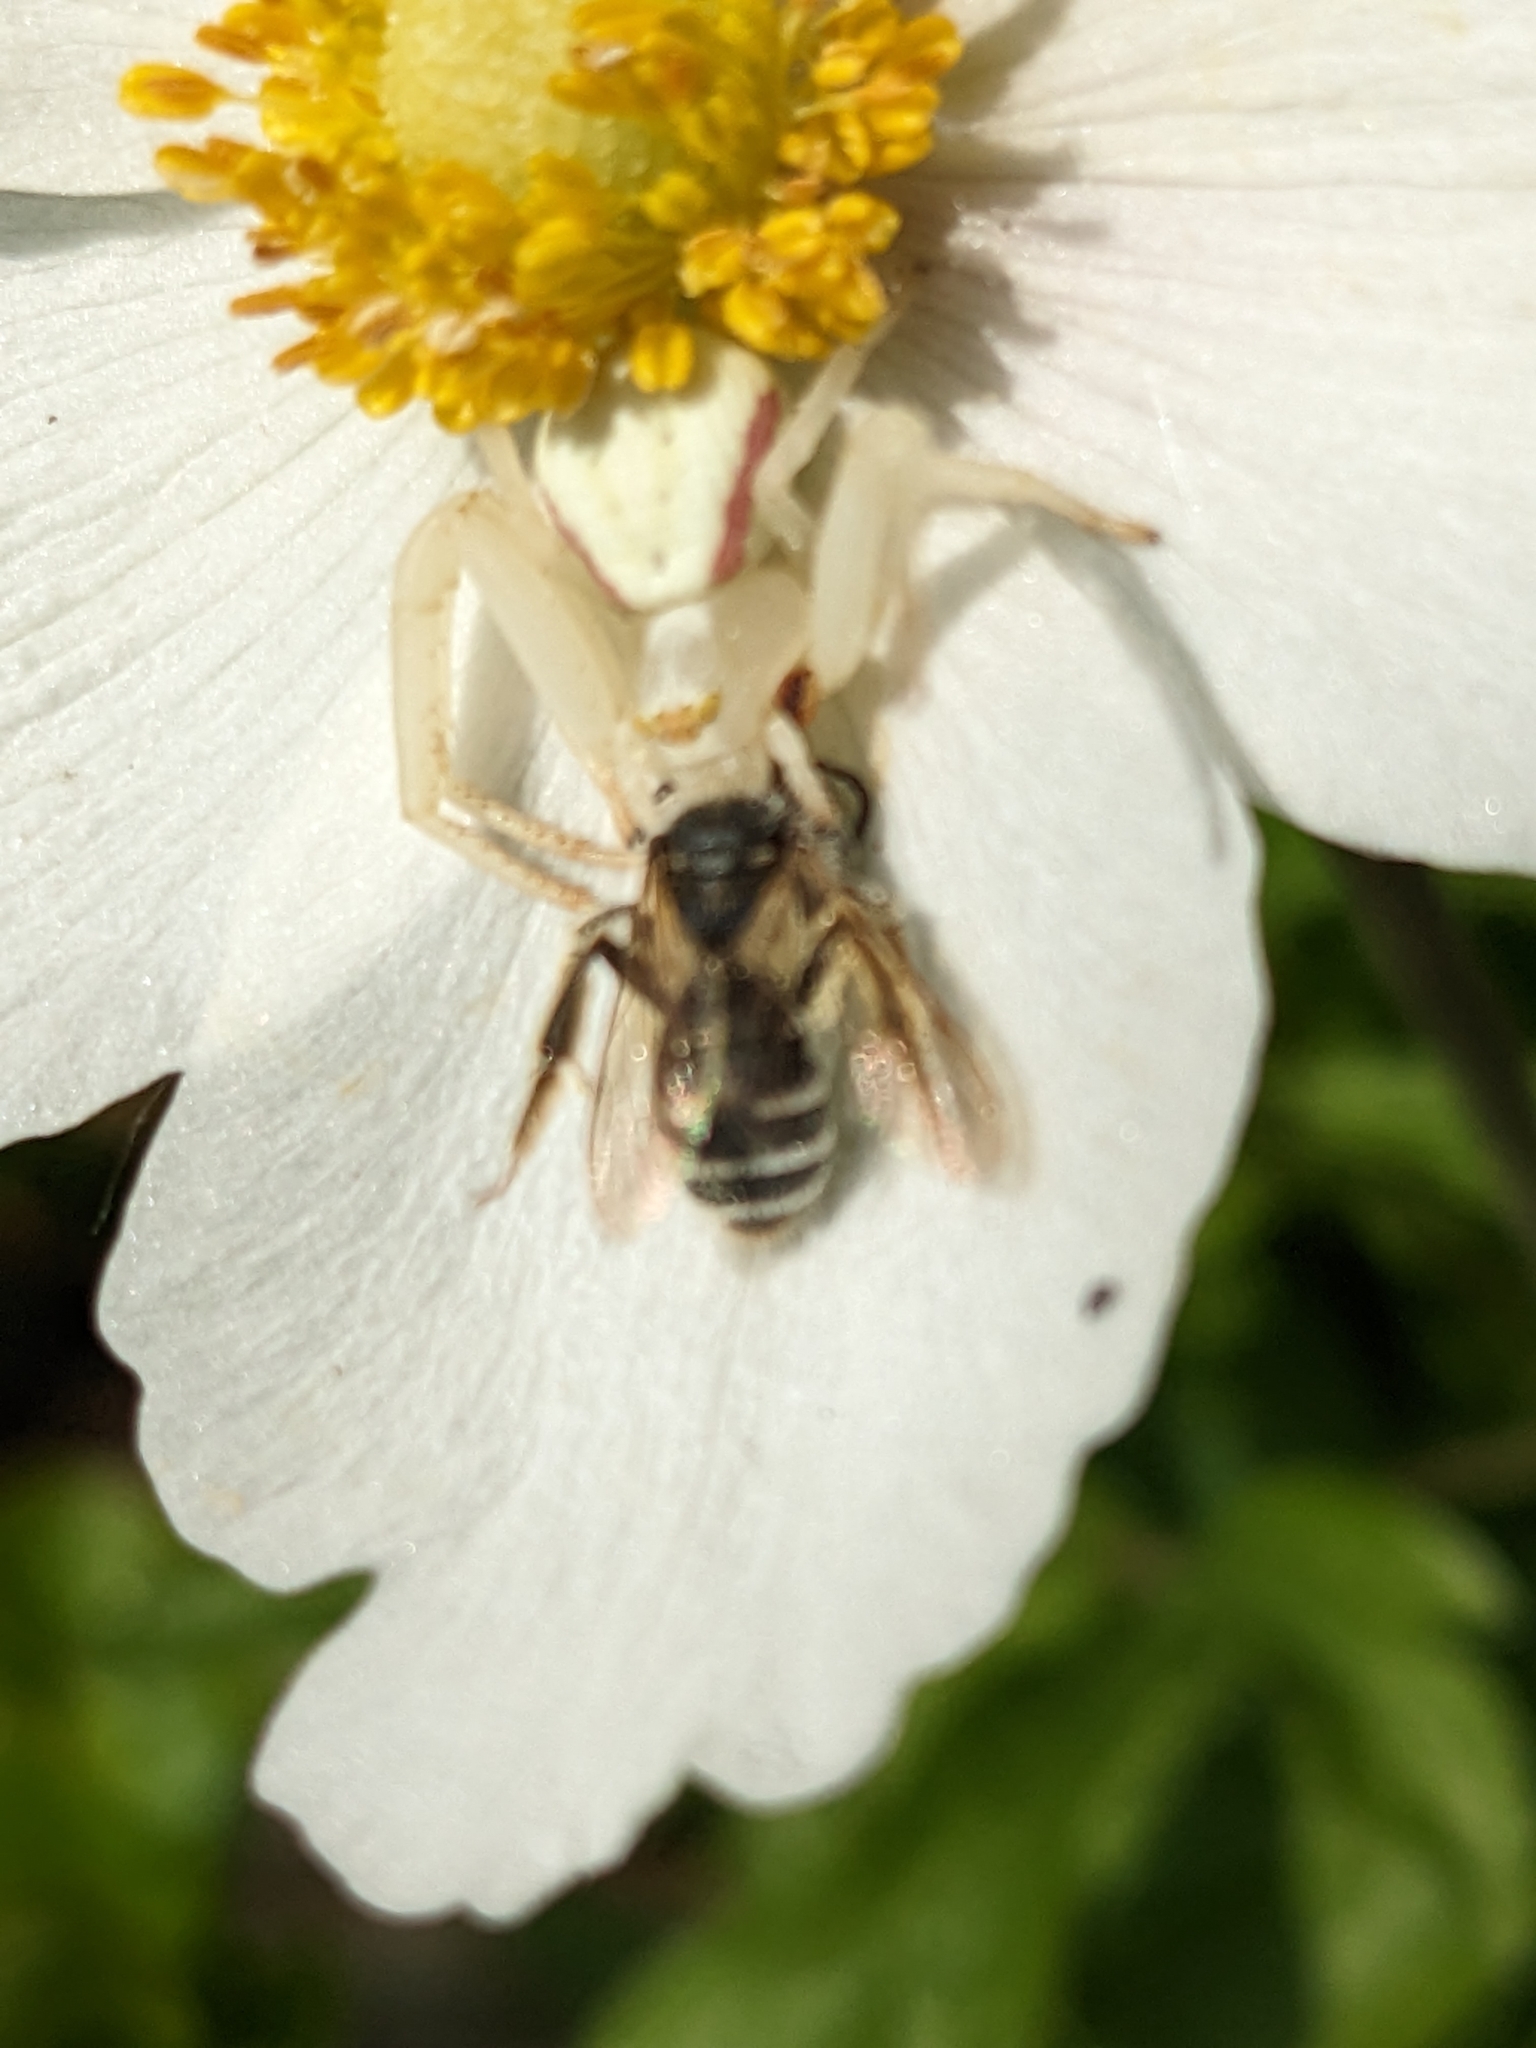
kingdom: Animalia
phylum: Arthropoda
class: Arachnida
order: Araneae
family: Thomisidae
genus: Misumena
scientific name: Misumena vatia
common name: Goldenrod crab spider
